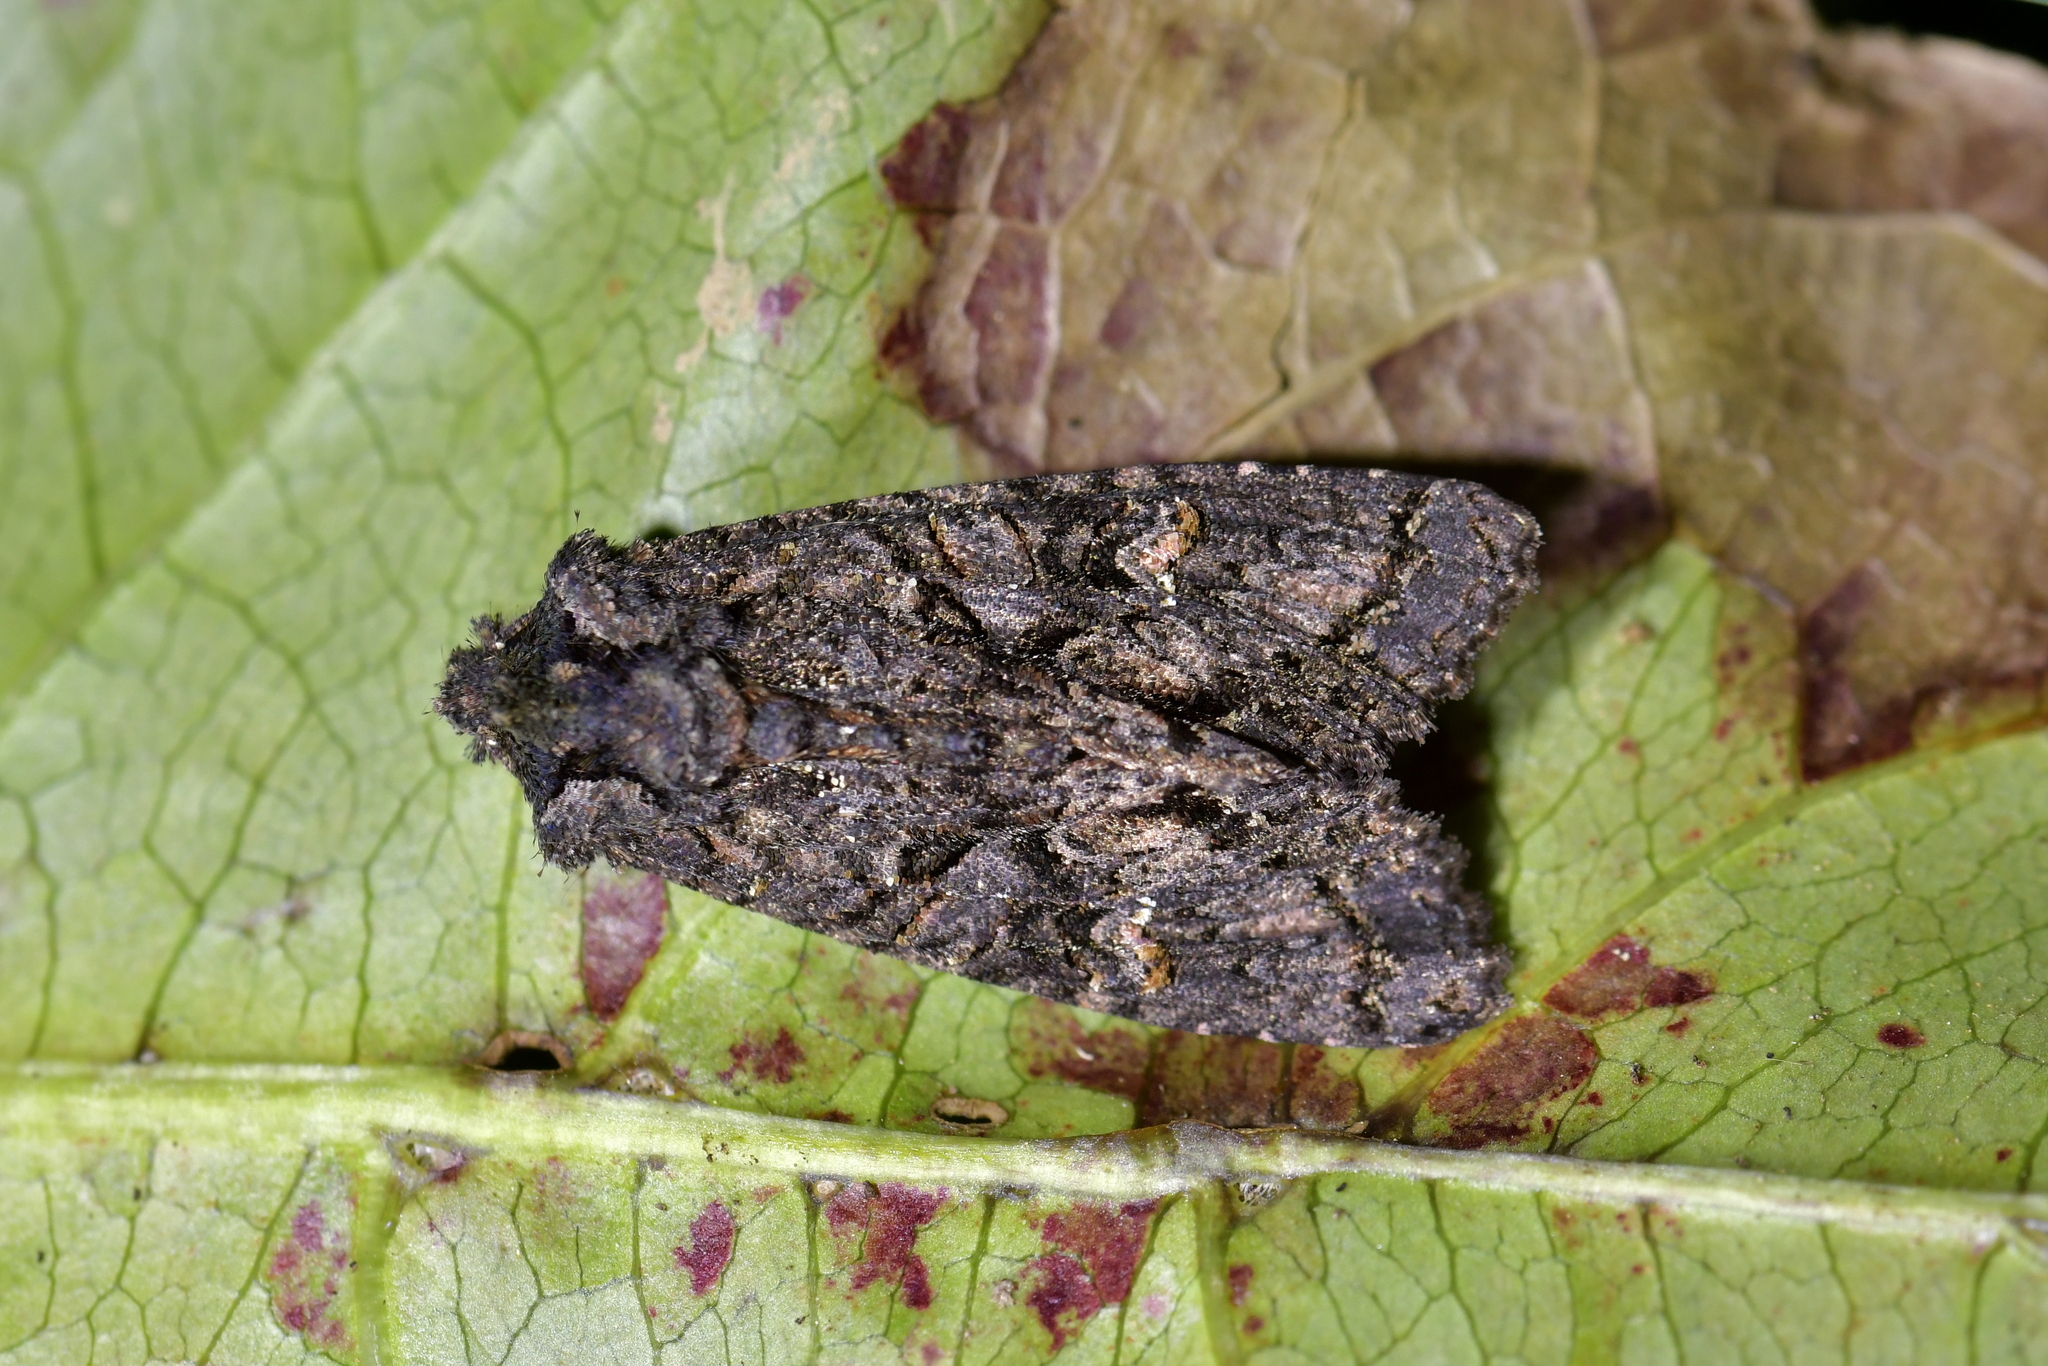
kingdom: Animalia
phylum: Arthropoda
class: Insecta
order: Lepidoptera
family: Noctuidae
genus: Meterana
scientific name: Meterana dotata
